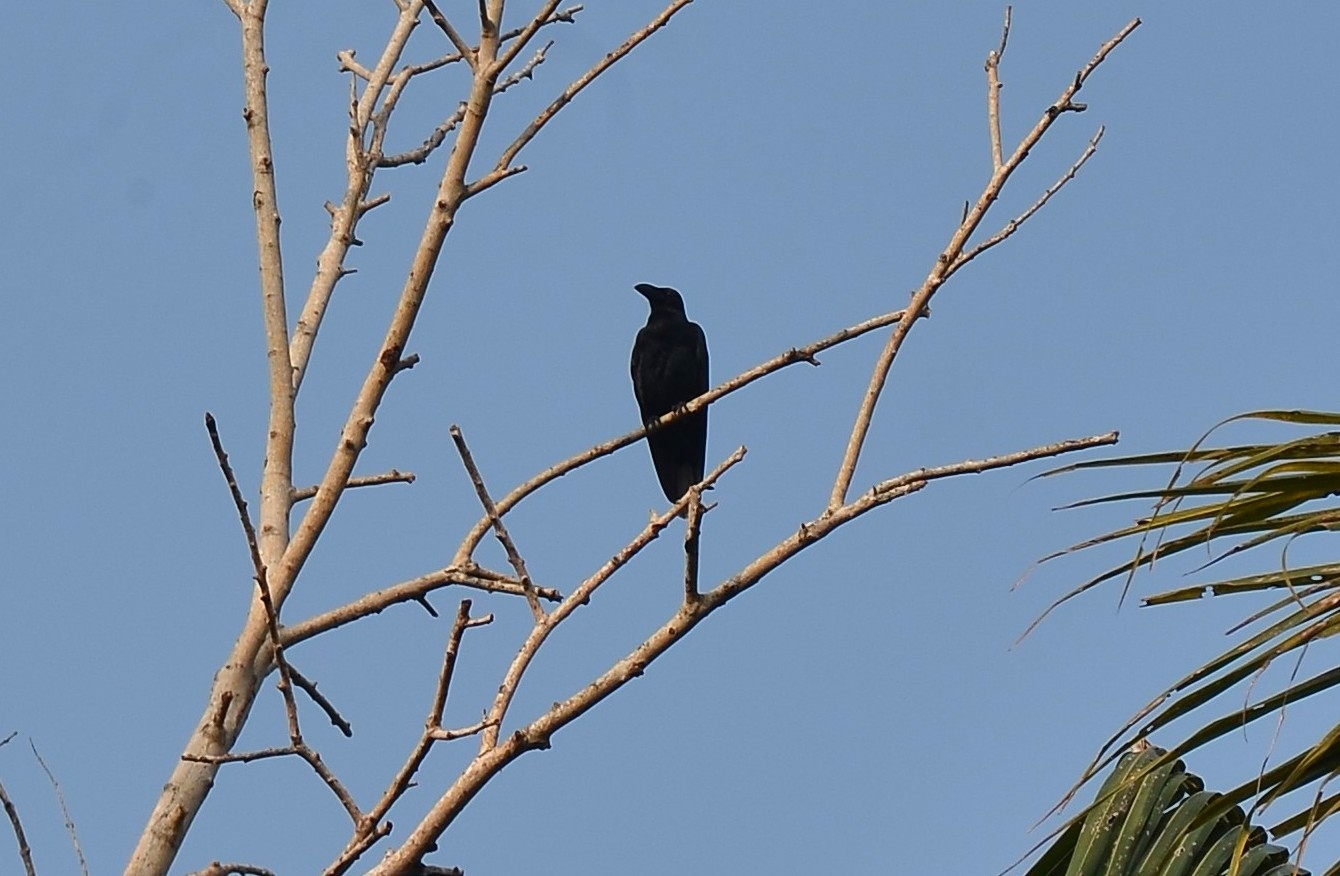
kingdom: Animalia
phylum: Chordata
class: Aves
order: Passeriformes
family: Corvidae
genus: Corvus
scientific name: Corvus macrorhynchos
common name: Large-billed crow
